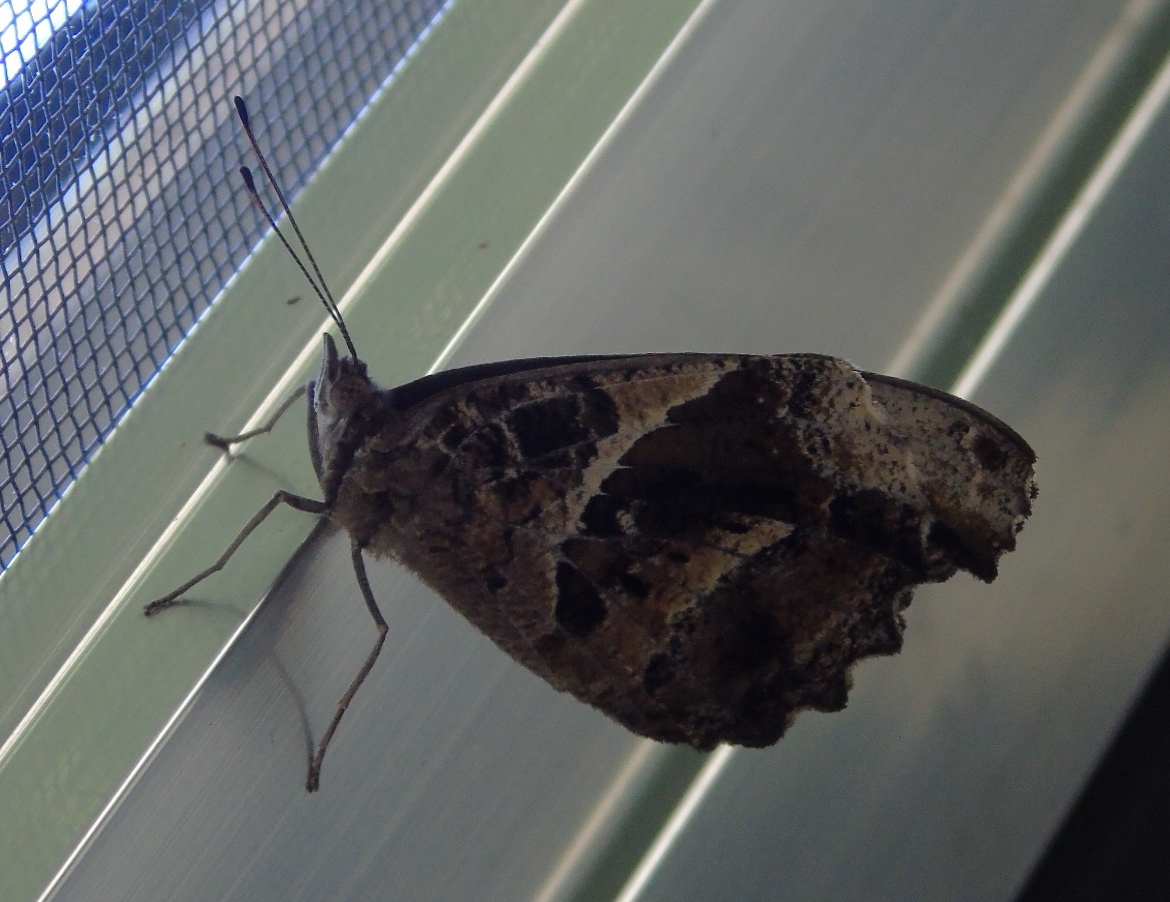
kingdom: Animalia
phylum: Arthropoda
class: Insecta
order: Lepidoptera
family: Nymphalidae
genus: Myscelia
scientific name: Myscelia cyananthe
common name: Blackened bluewing
